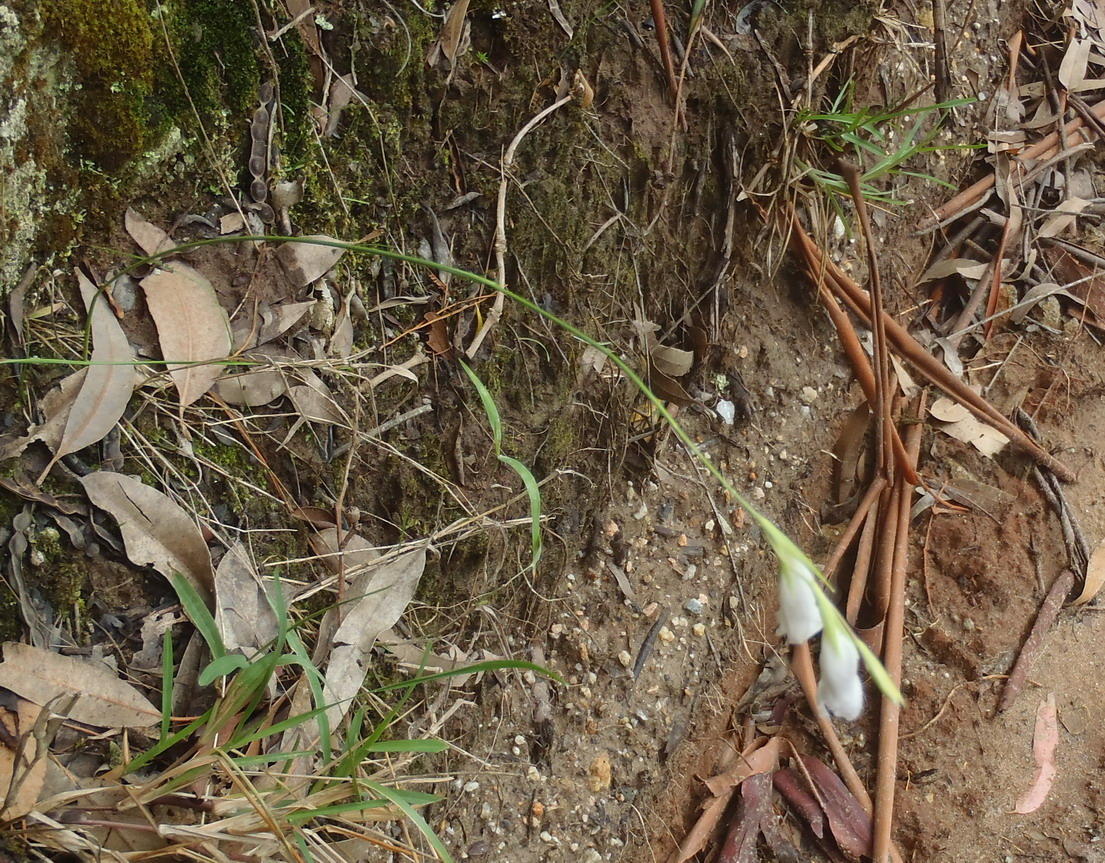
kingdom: Plantae
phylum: Tracheophyta
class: Liliopsida
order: Asparagales
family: Iridaceae
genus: Gladiolus
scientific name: Gladiolus vaginatus
